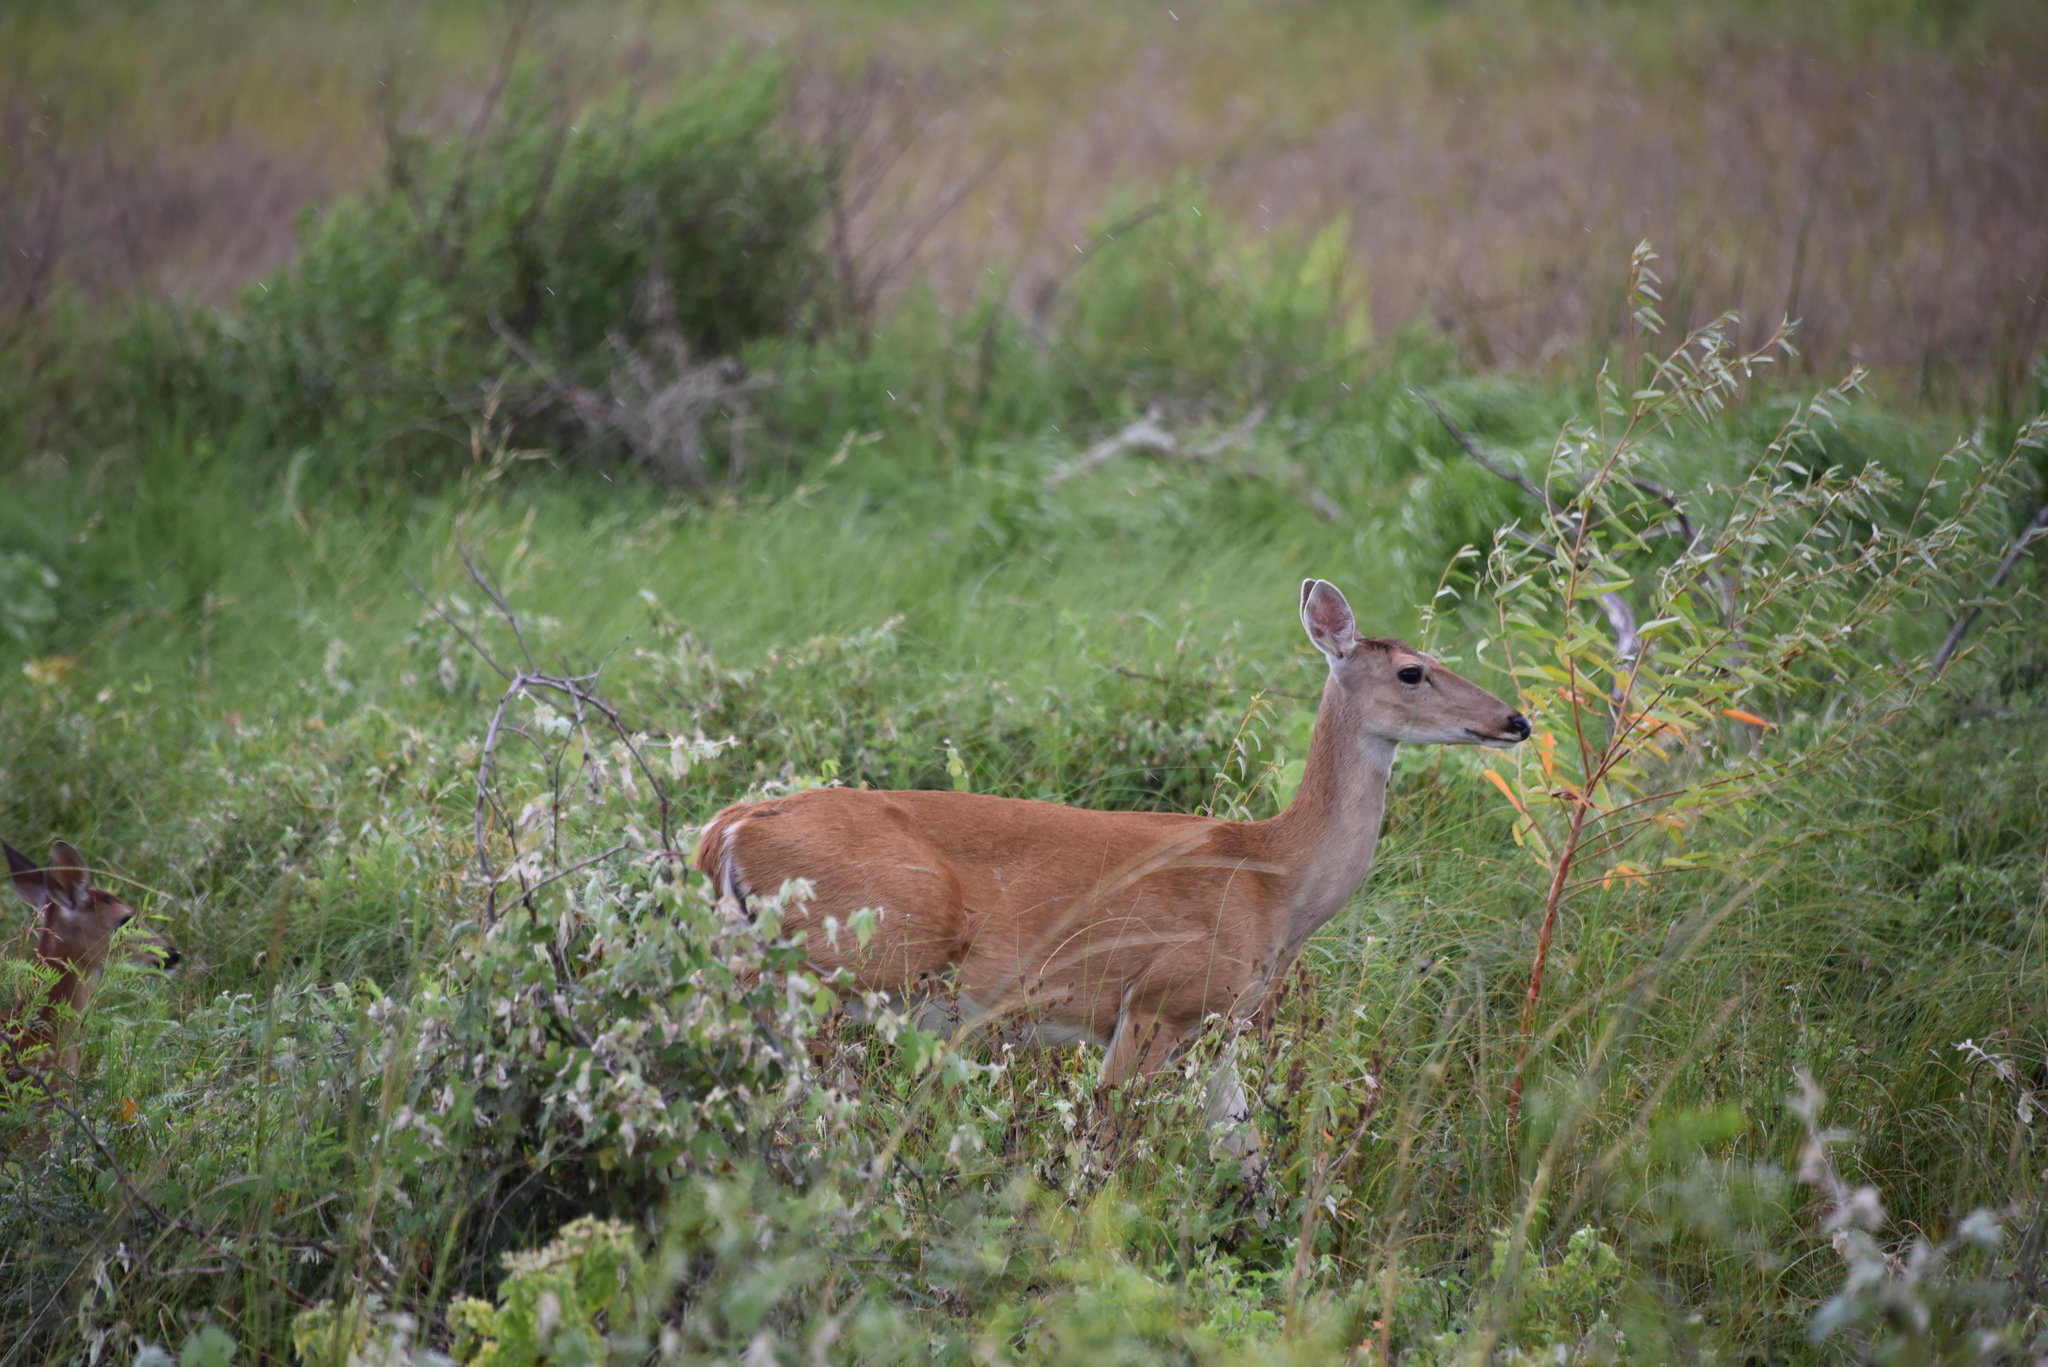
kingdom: Animalia
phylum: Chordata
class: Mammalia
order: Artiodactyla
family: Cervidae
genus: Odocoileus
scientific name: Odocoileus virginianus
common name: White-tailed deer
